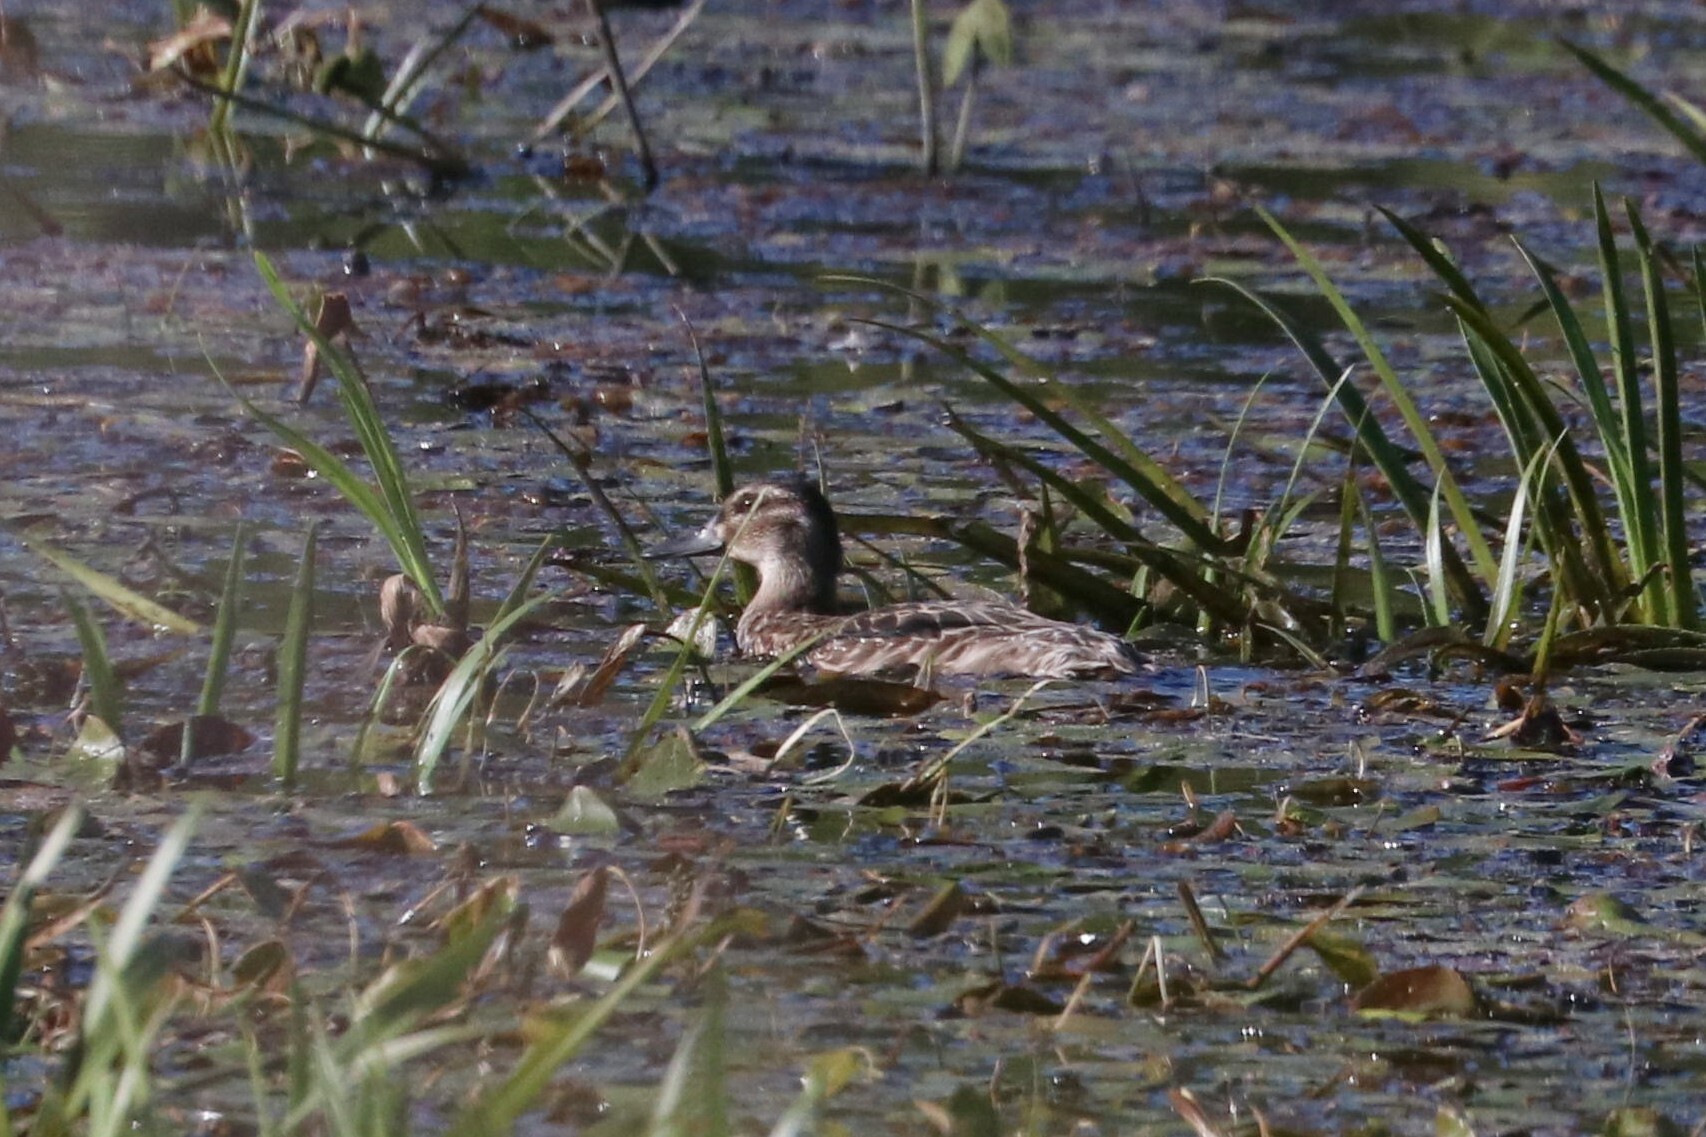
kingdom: Animalia
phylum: Chordata
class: Aves
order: Anseriformes
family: Anatidae
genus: Spatula
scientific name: Spatula querquedula
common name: Garganey
